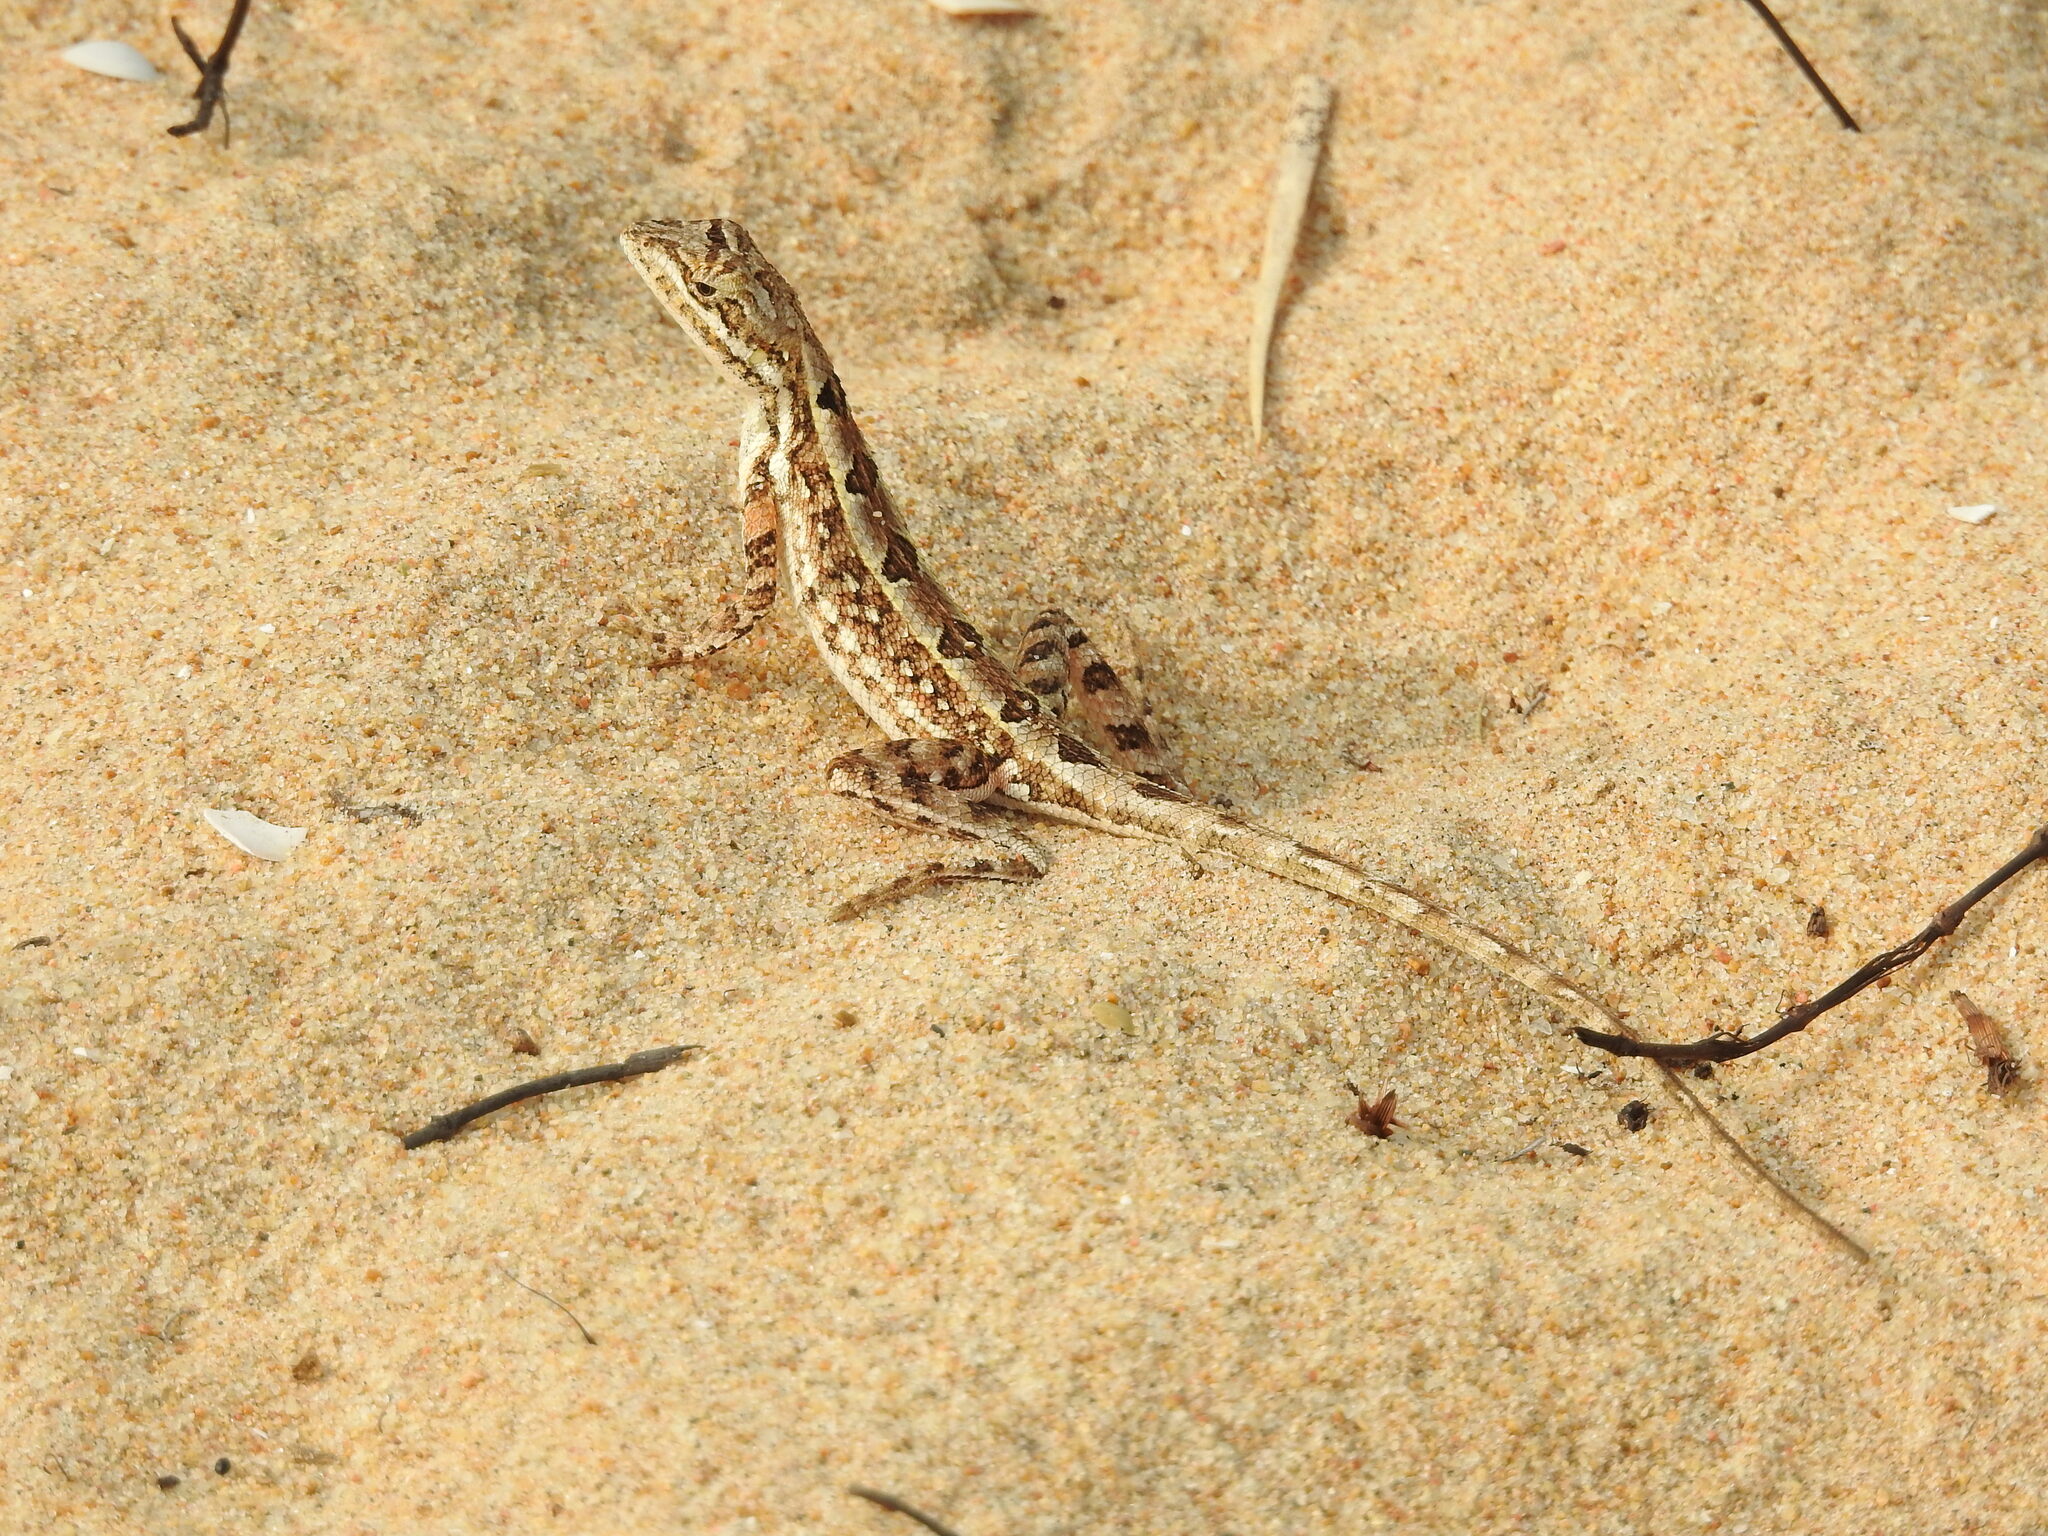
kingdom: Animalia
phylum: Chordata
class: Squamata
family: Agamidae
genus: Sitana
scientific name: Sitana ponticeriana
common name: Pondichéry fan throated lizard
